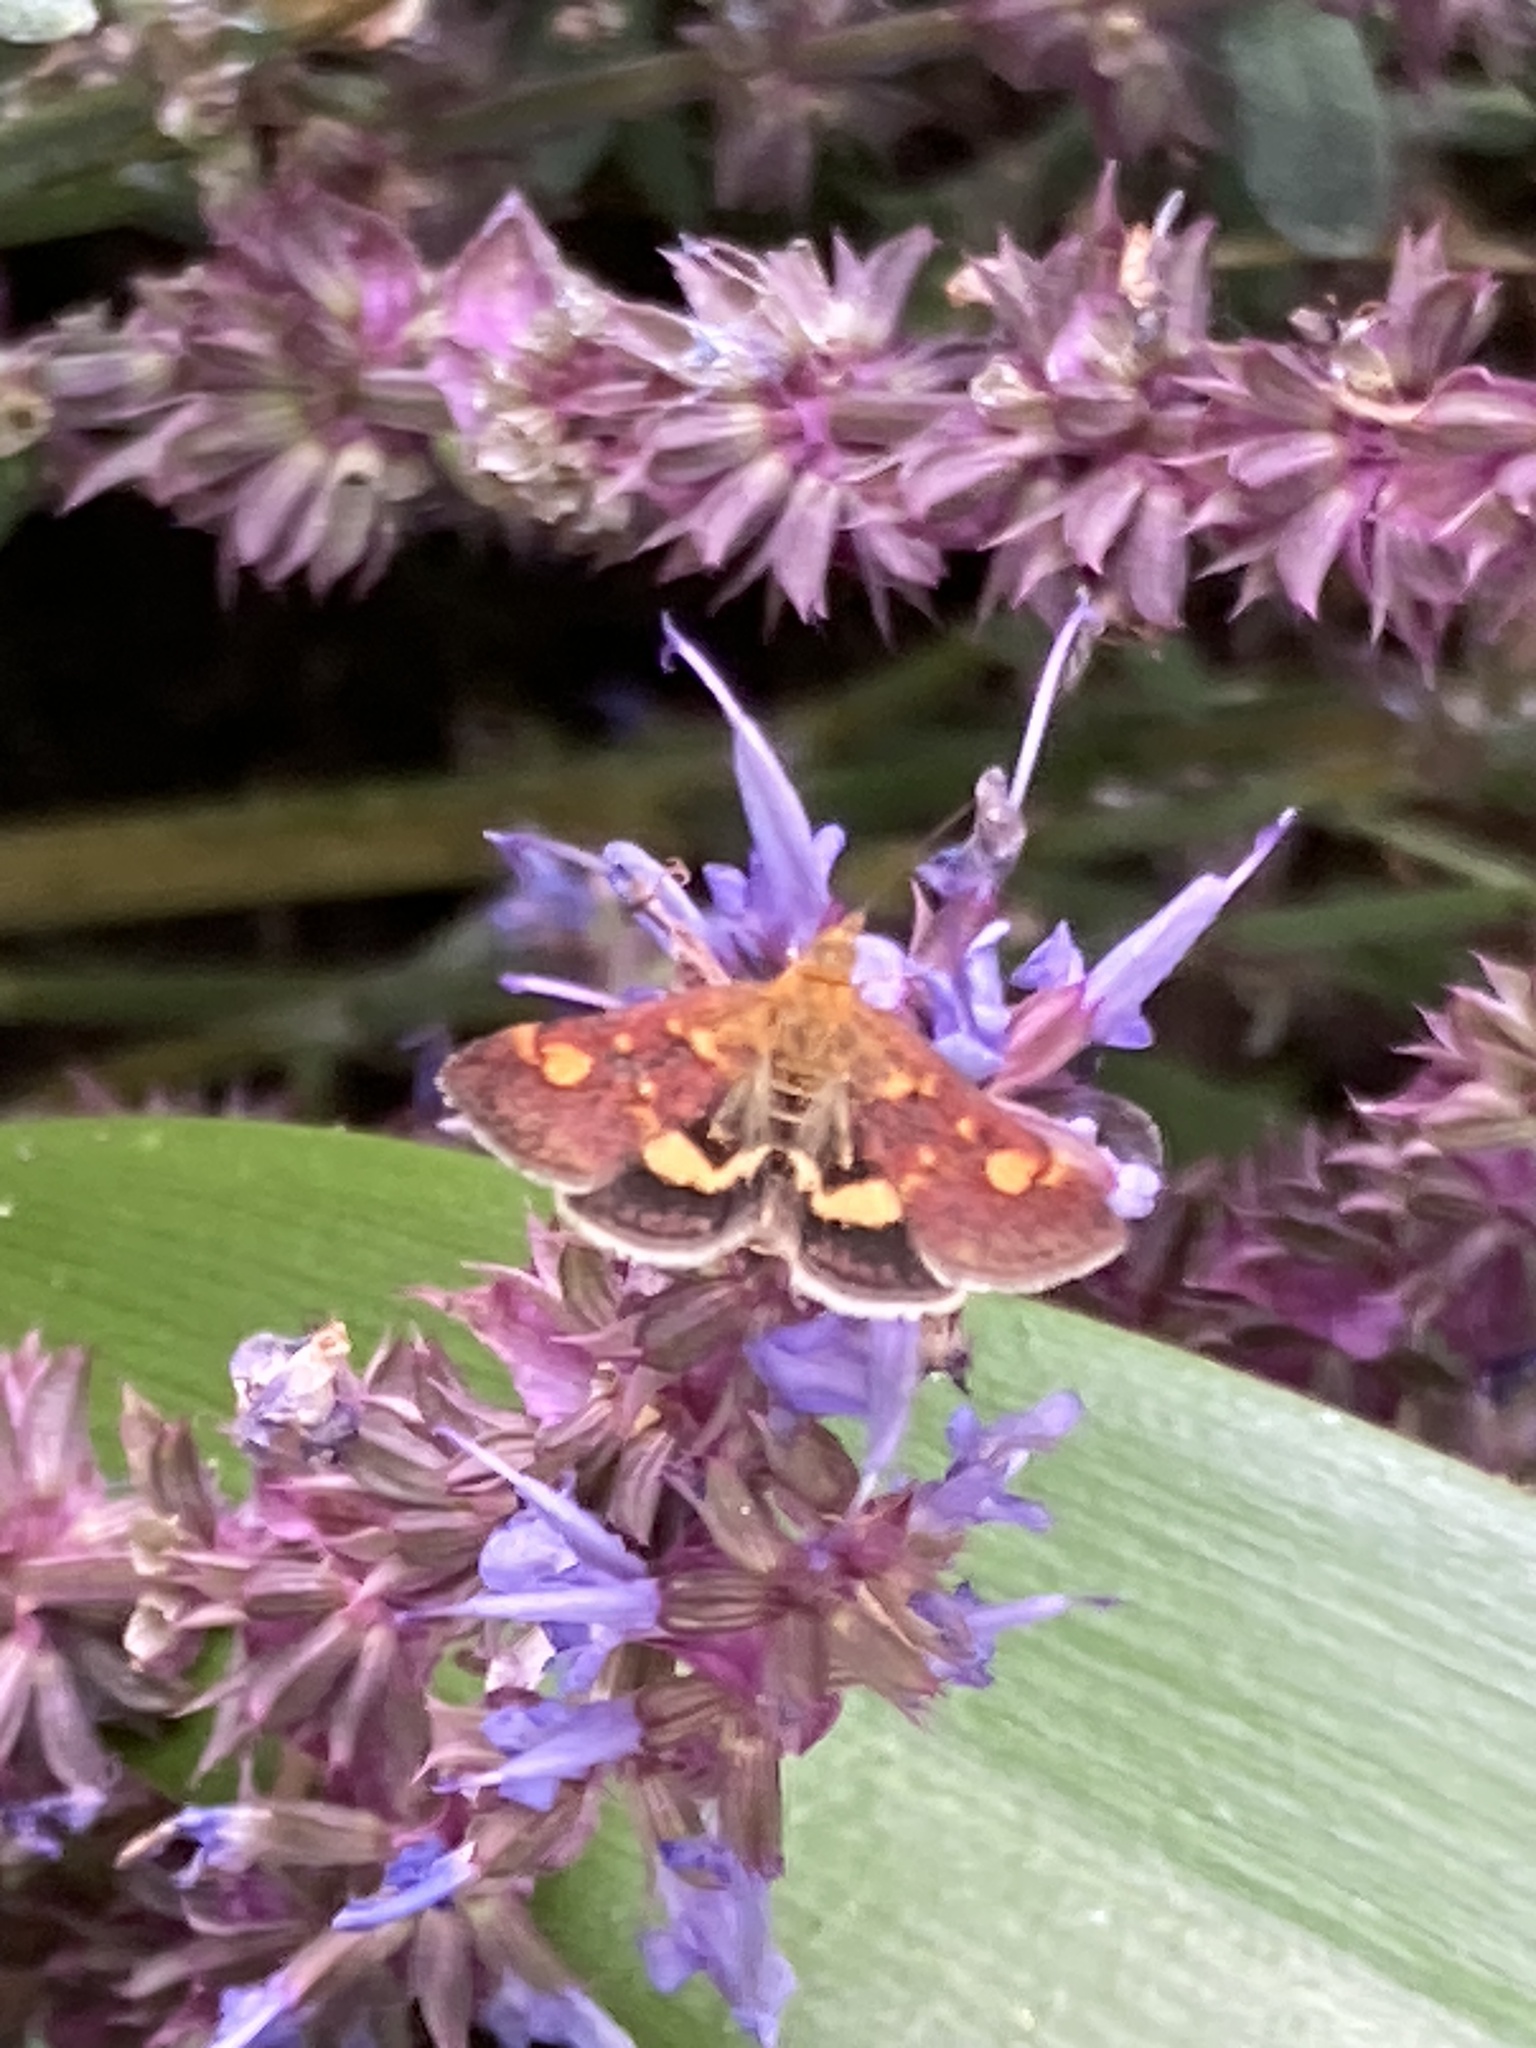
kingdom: Animalia
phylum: Arthropoda
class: Insecta
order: Lepidoptera
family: Crambidae
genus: Pyrausta
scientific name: Pyrausta aurata
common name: Small purple & gold
